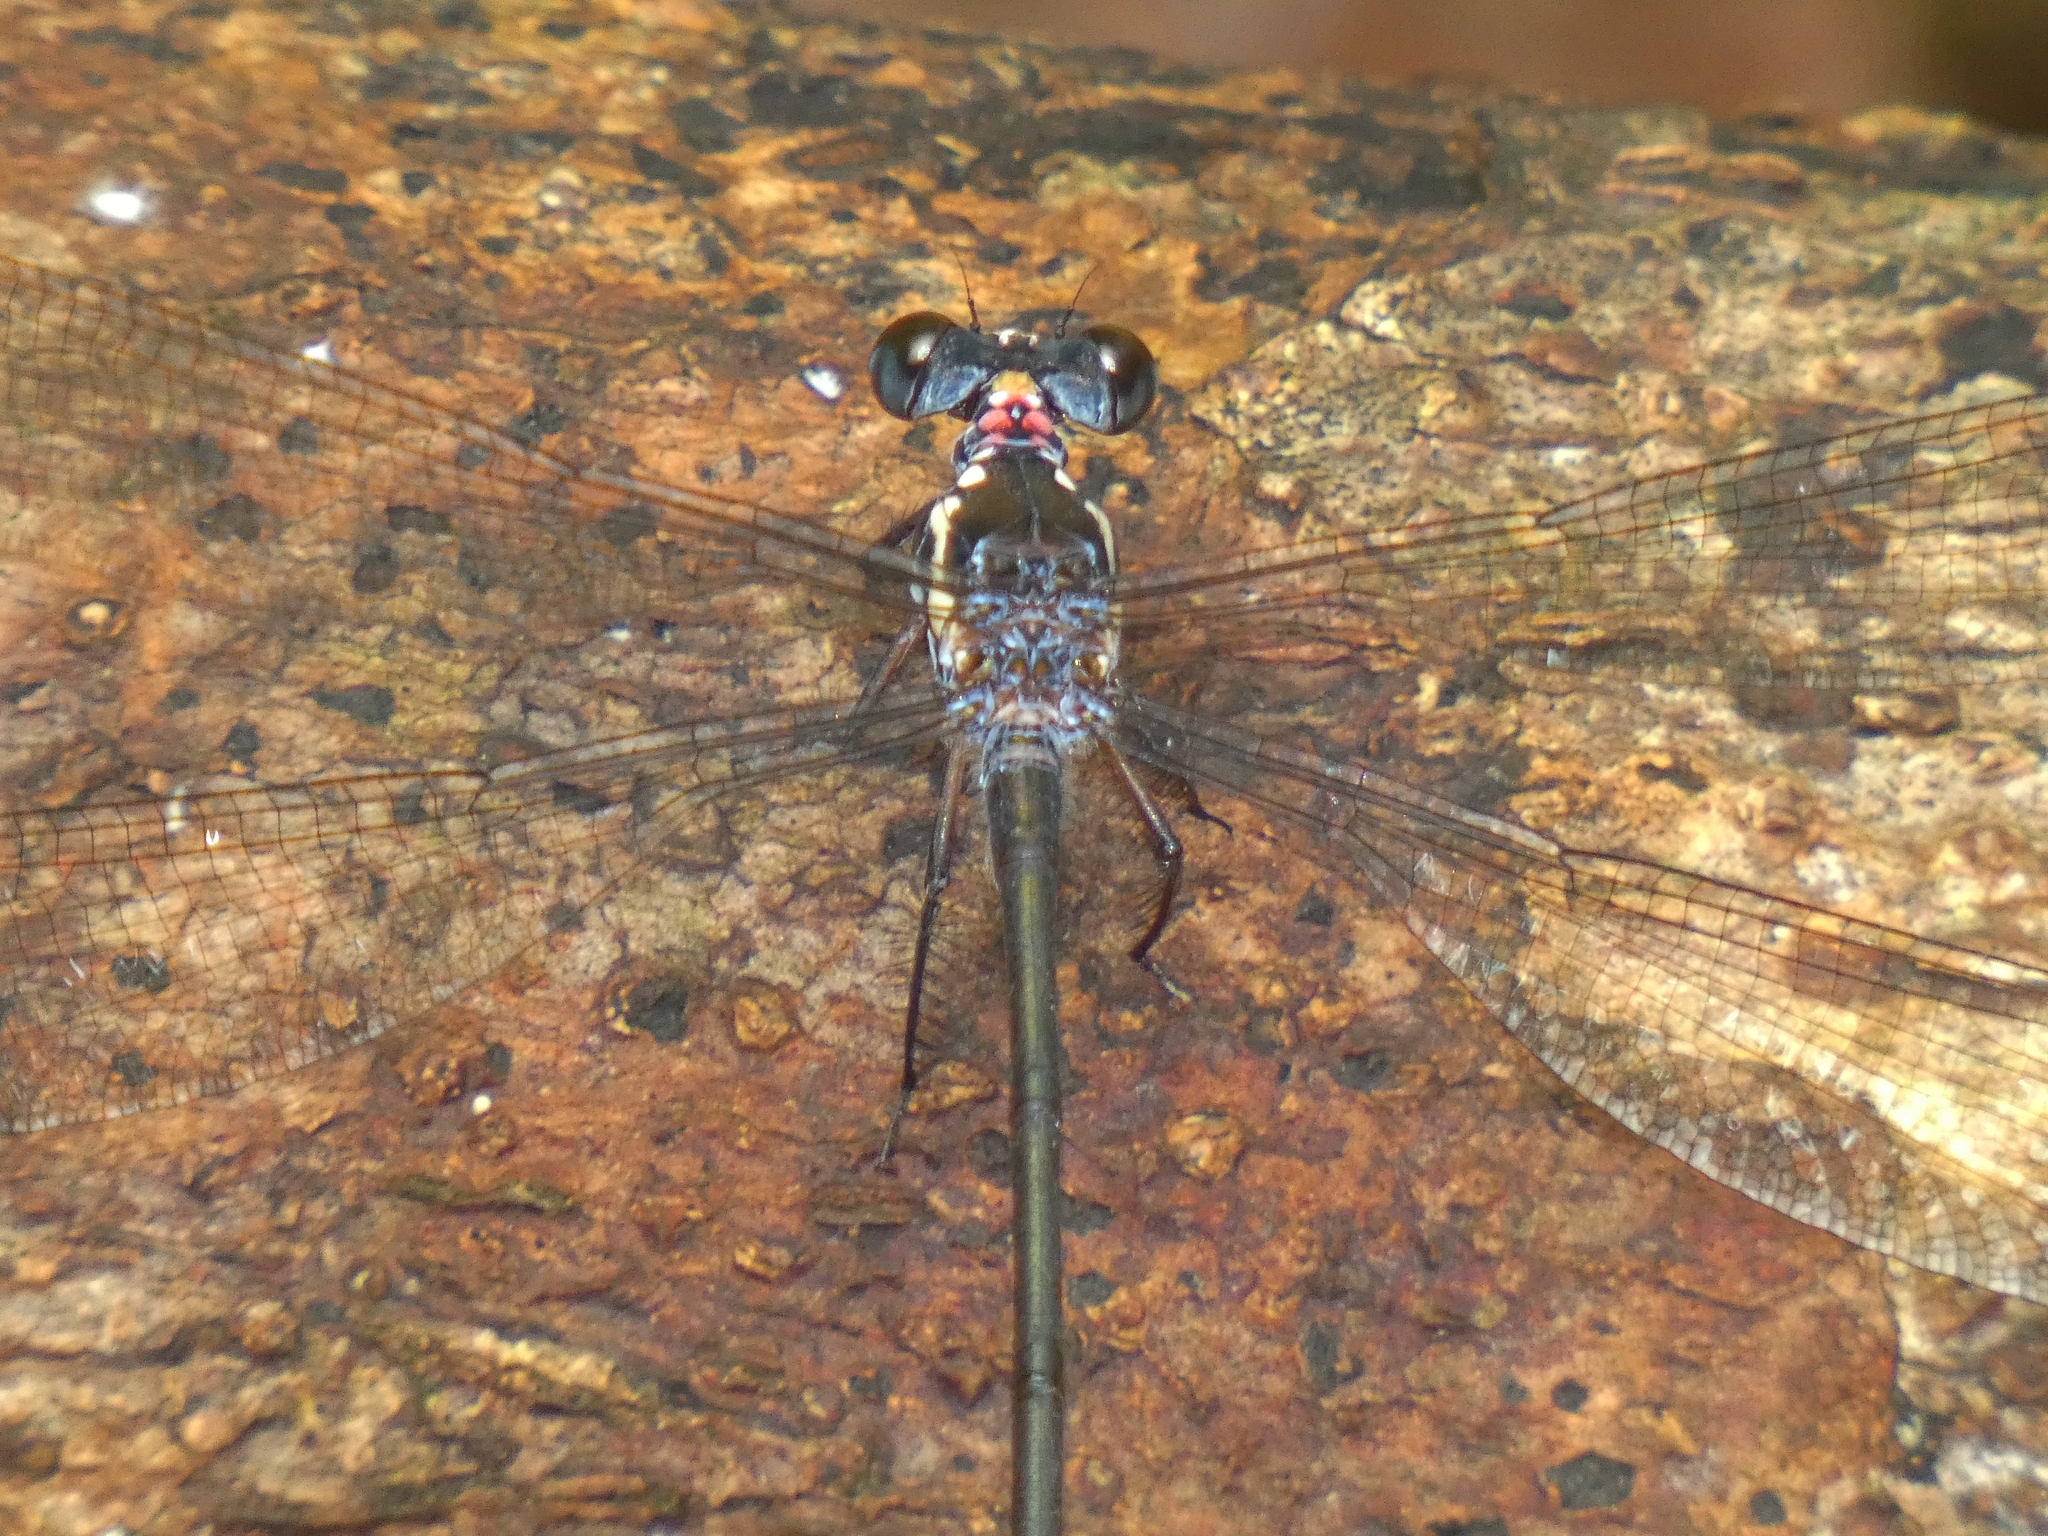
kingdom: Animalia
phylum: Arthropoda
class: Insecta
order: Odonata
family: Argiolestidae
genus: Podopteryx
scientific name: Podopteryx selysi
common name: Treehole flatwing
